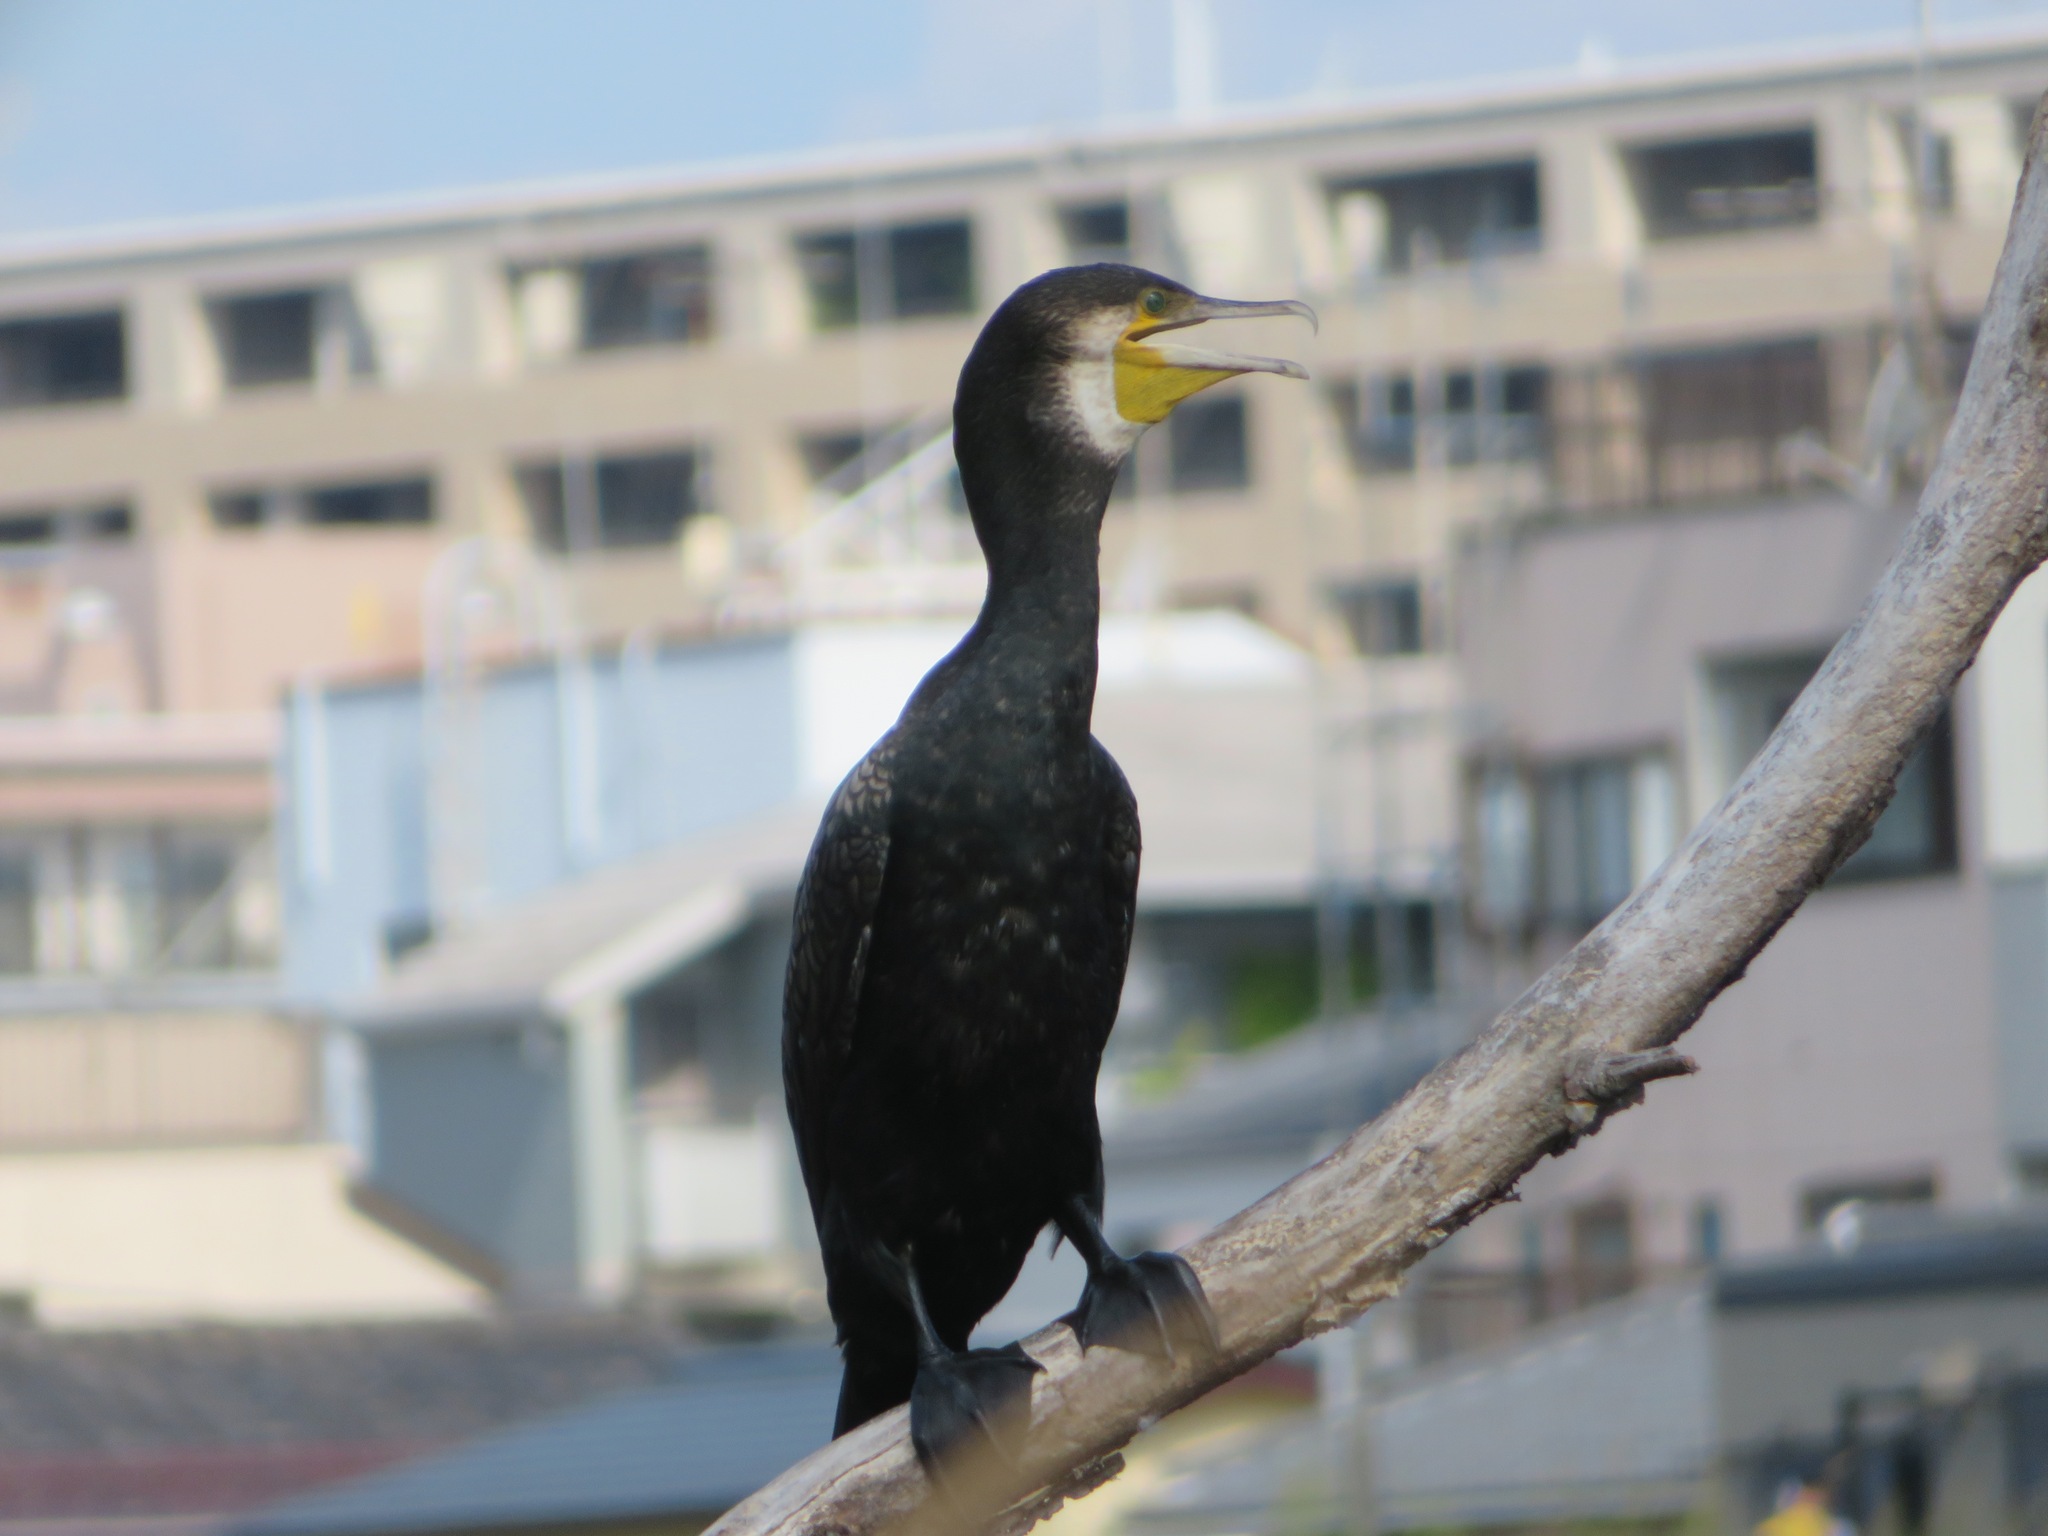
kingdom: Animalia
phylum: Chordata
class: Aves
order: Suliformes
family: Phalacrocoracidae
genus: Phalacrocorax
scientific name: Phalacrocorax carbo
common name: Great cormorant
